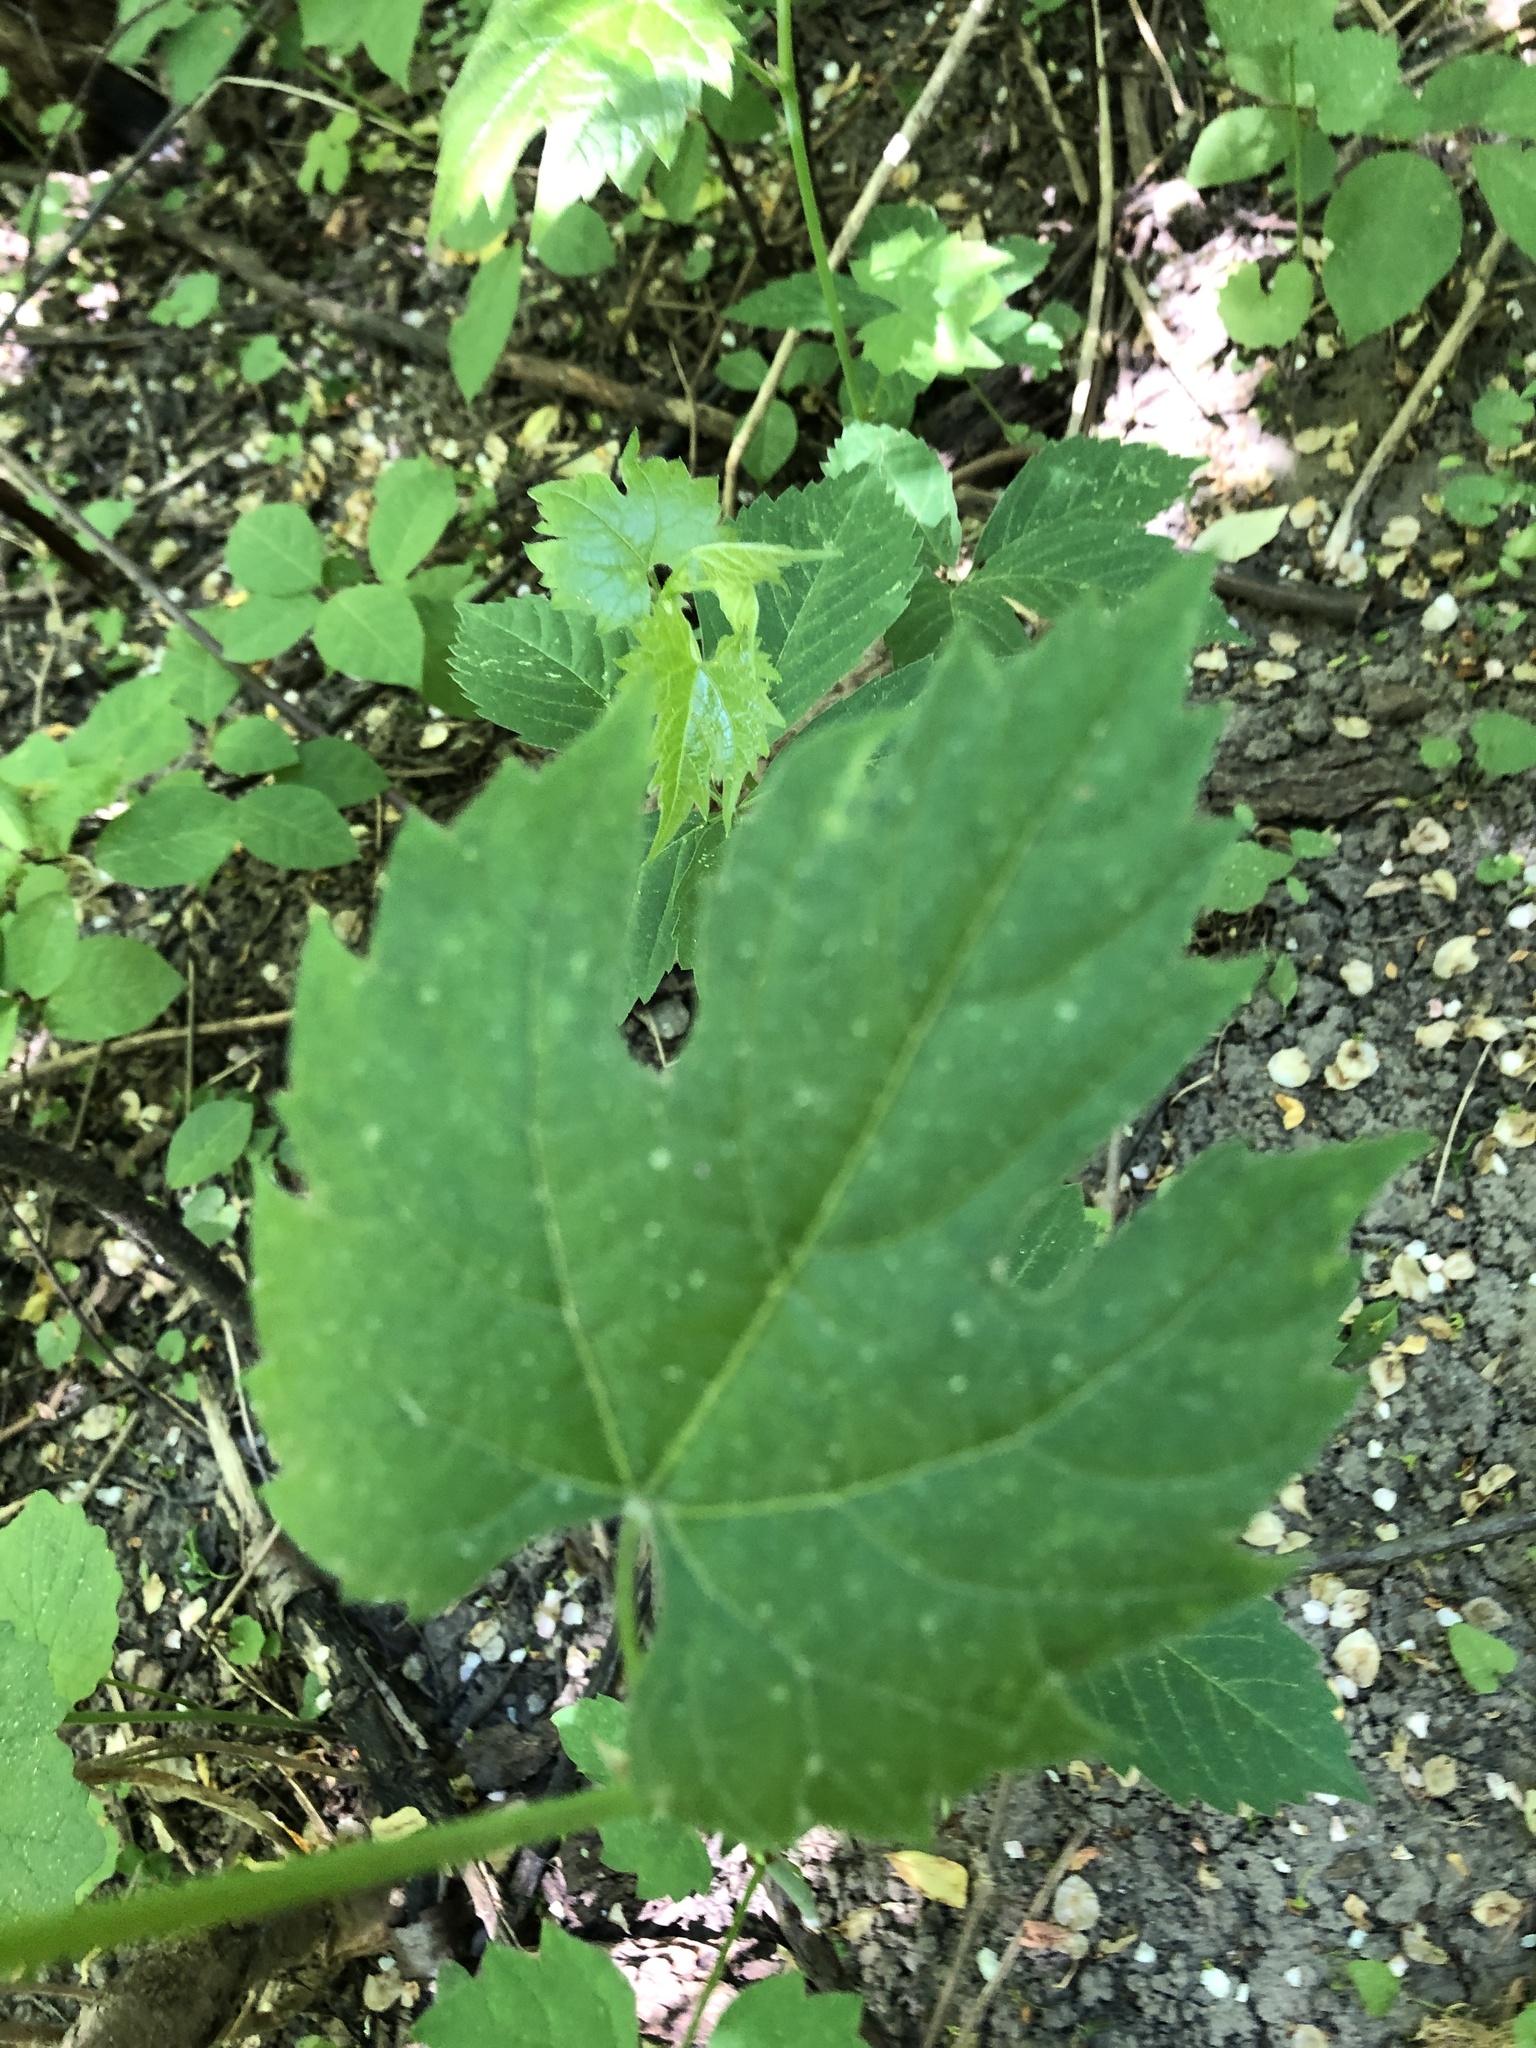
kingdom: Plantae
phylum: Tracheophyta
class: Magnoliopsida
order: Vitales
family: Vitaceae
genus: Vitis
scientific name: Vitis riparia
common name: Frost grape
